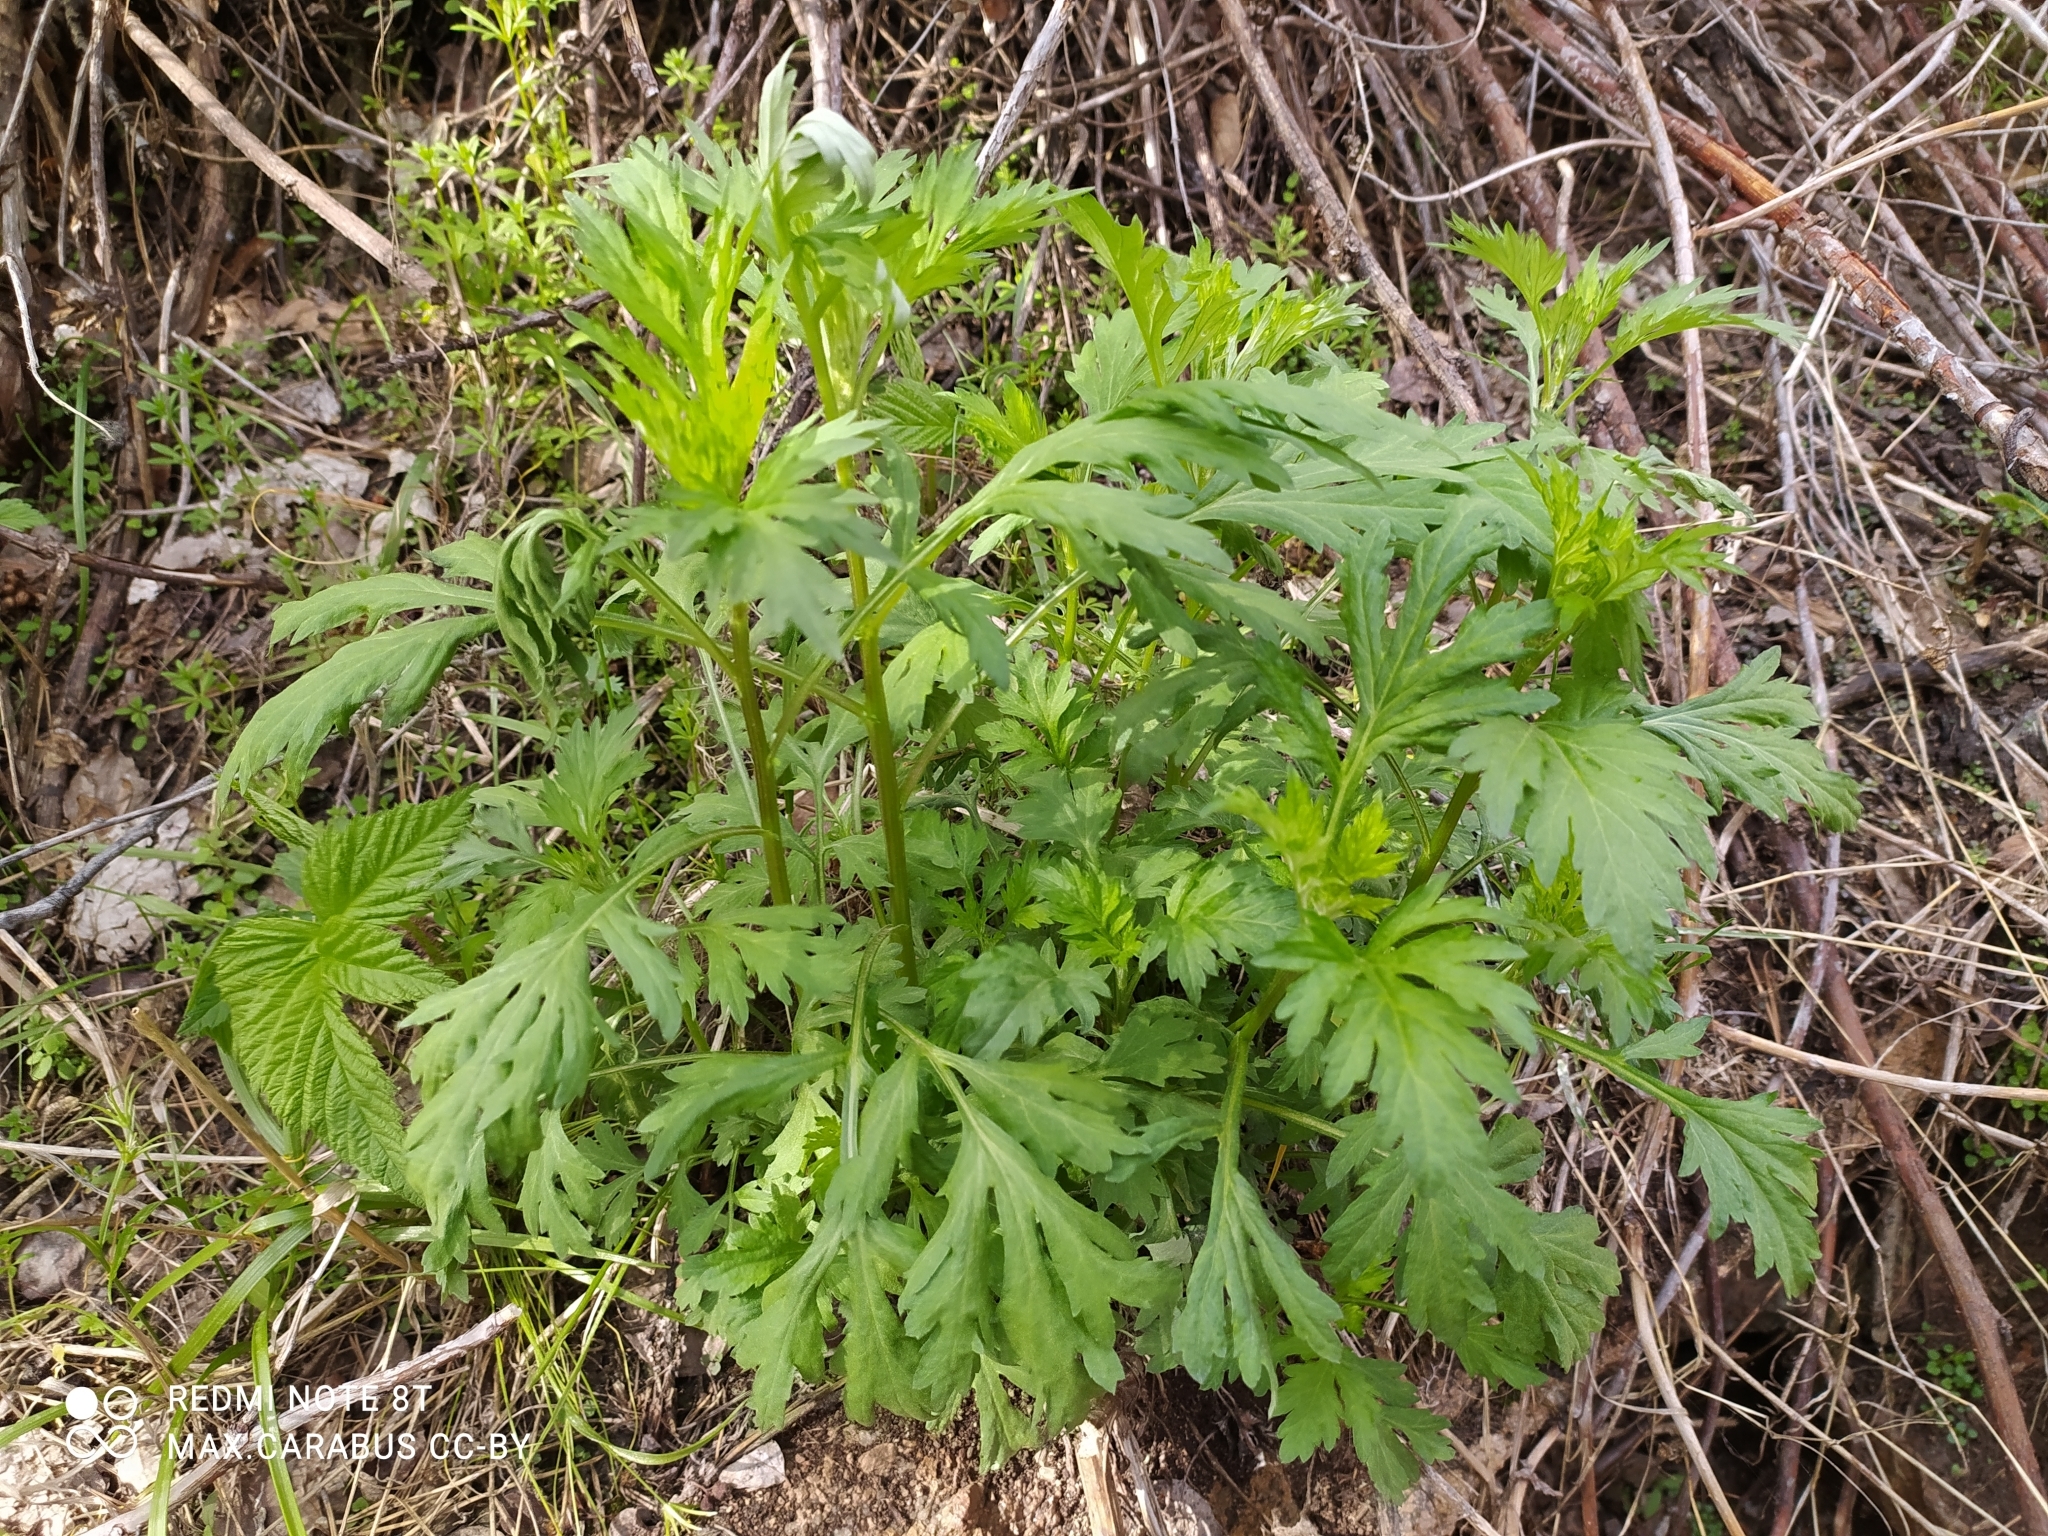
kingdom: Plantae
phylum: Tracheophyta
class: Magnoliopsida
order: Asterales
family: Asteraceae
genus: Artemisia
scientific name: Artemisia vulgaris
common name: Mugwort
